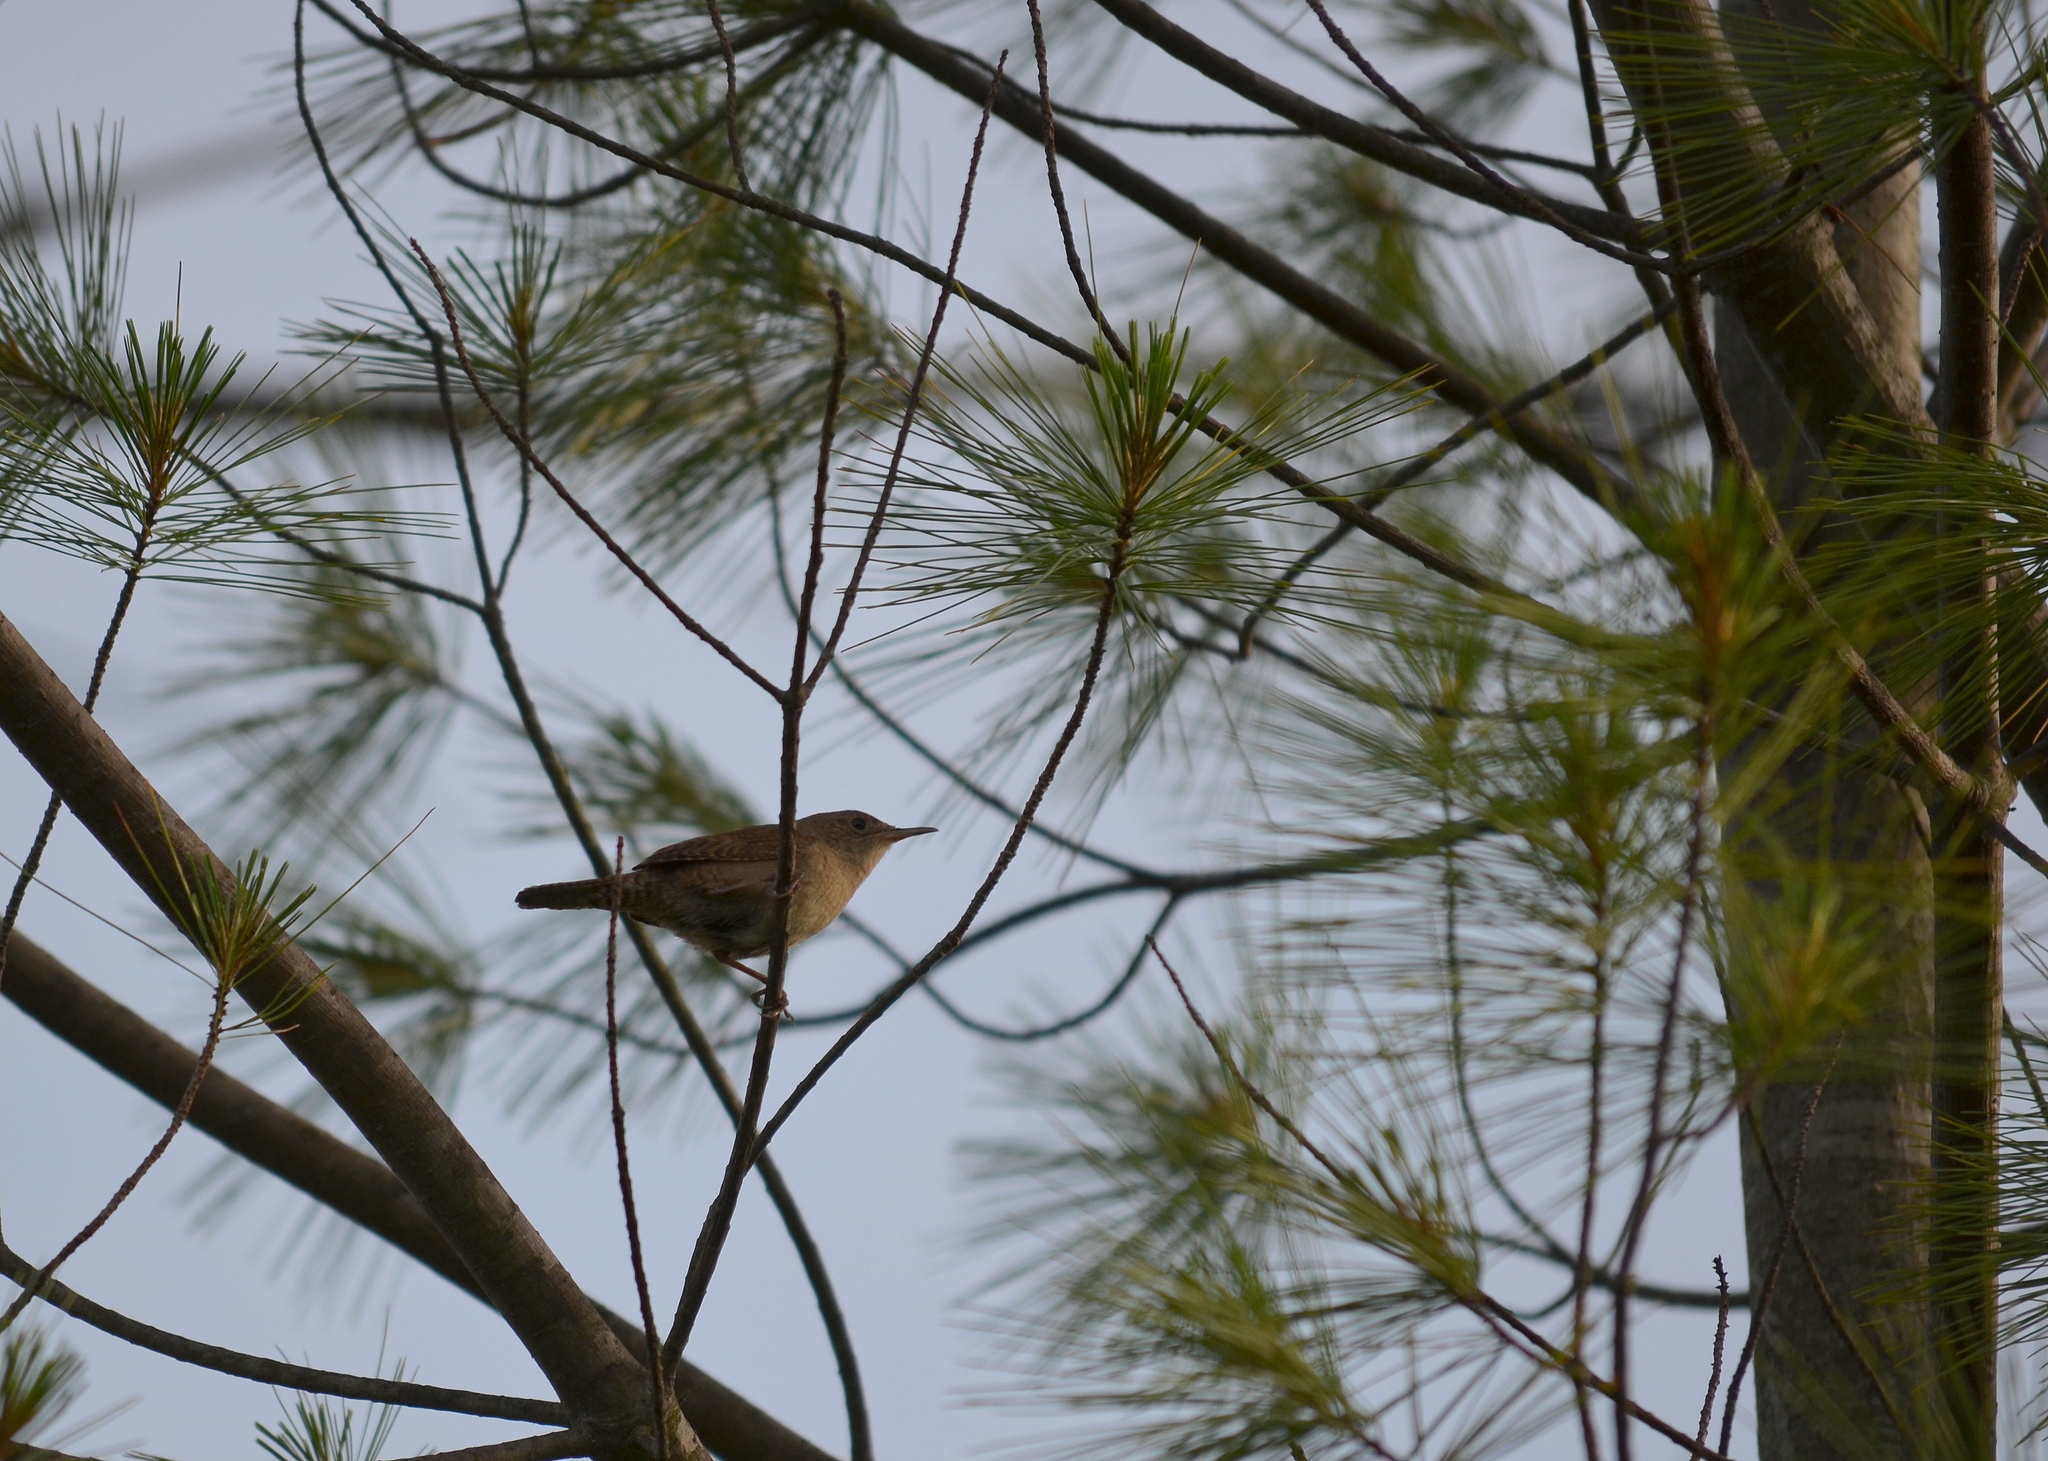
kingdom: Animalia
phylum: Chordata
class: Aves
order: Passeriformes
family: Troglodytidae
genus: Troglodytes
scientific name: Troglodytes aedon
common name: House wren
